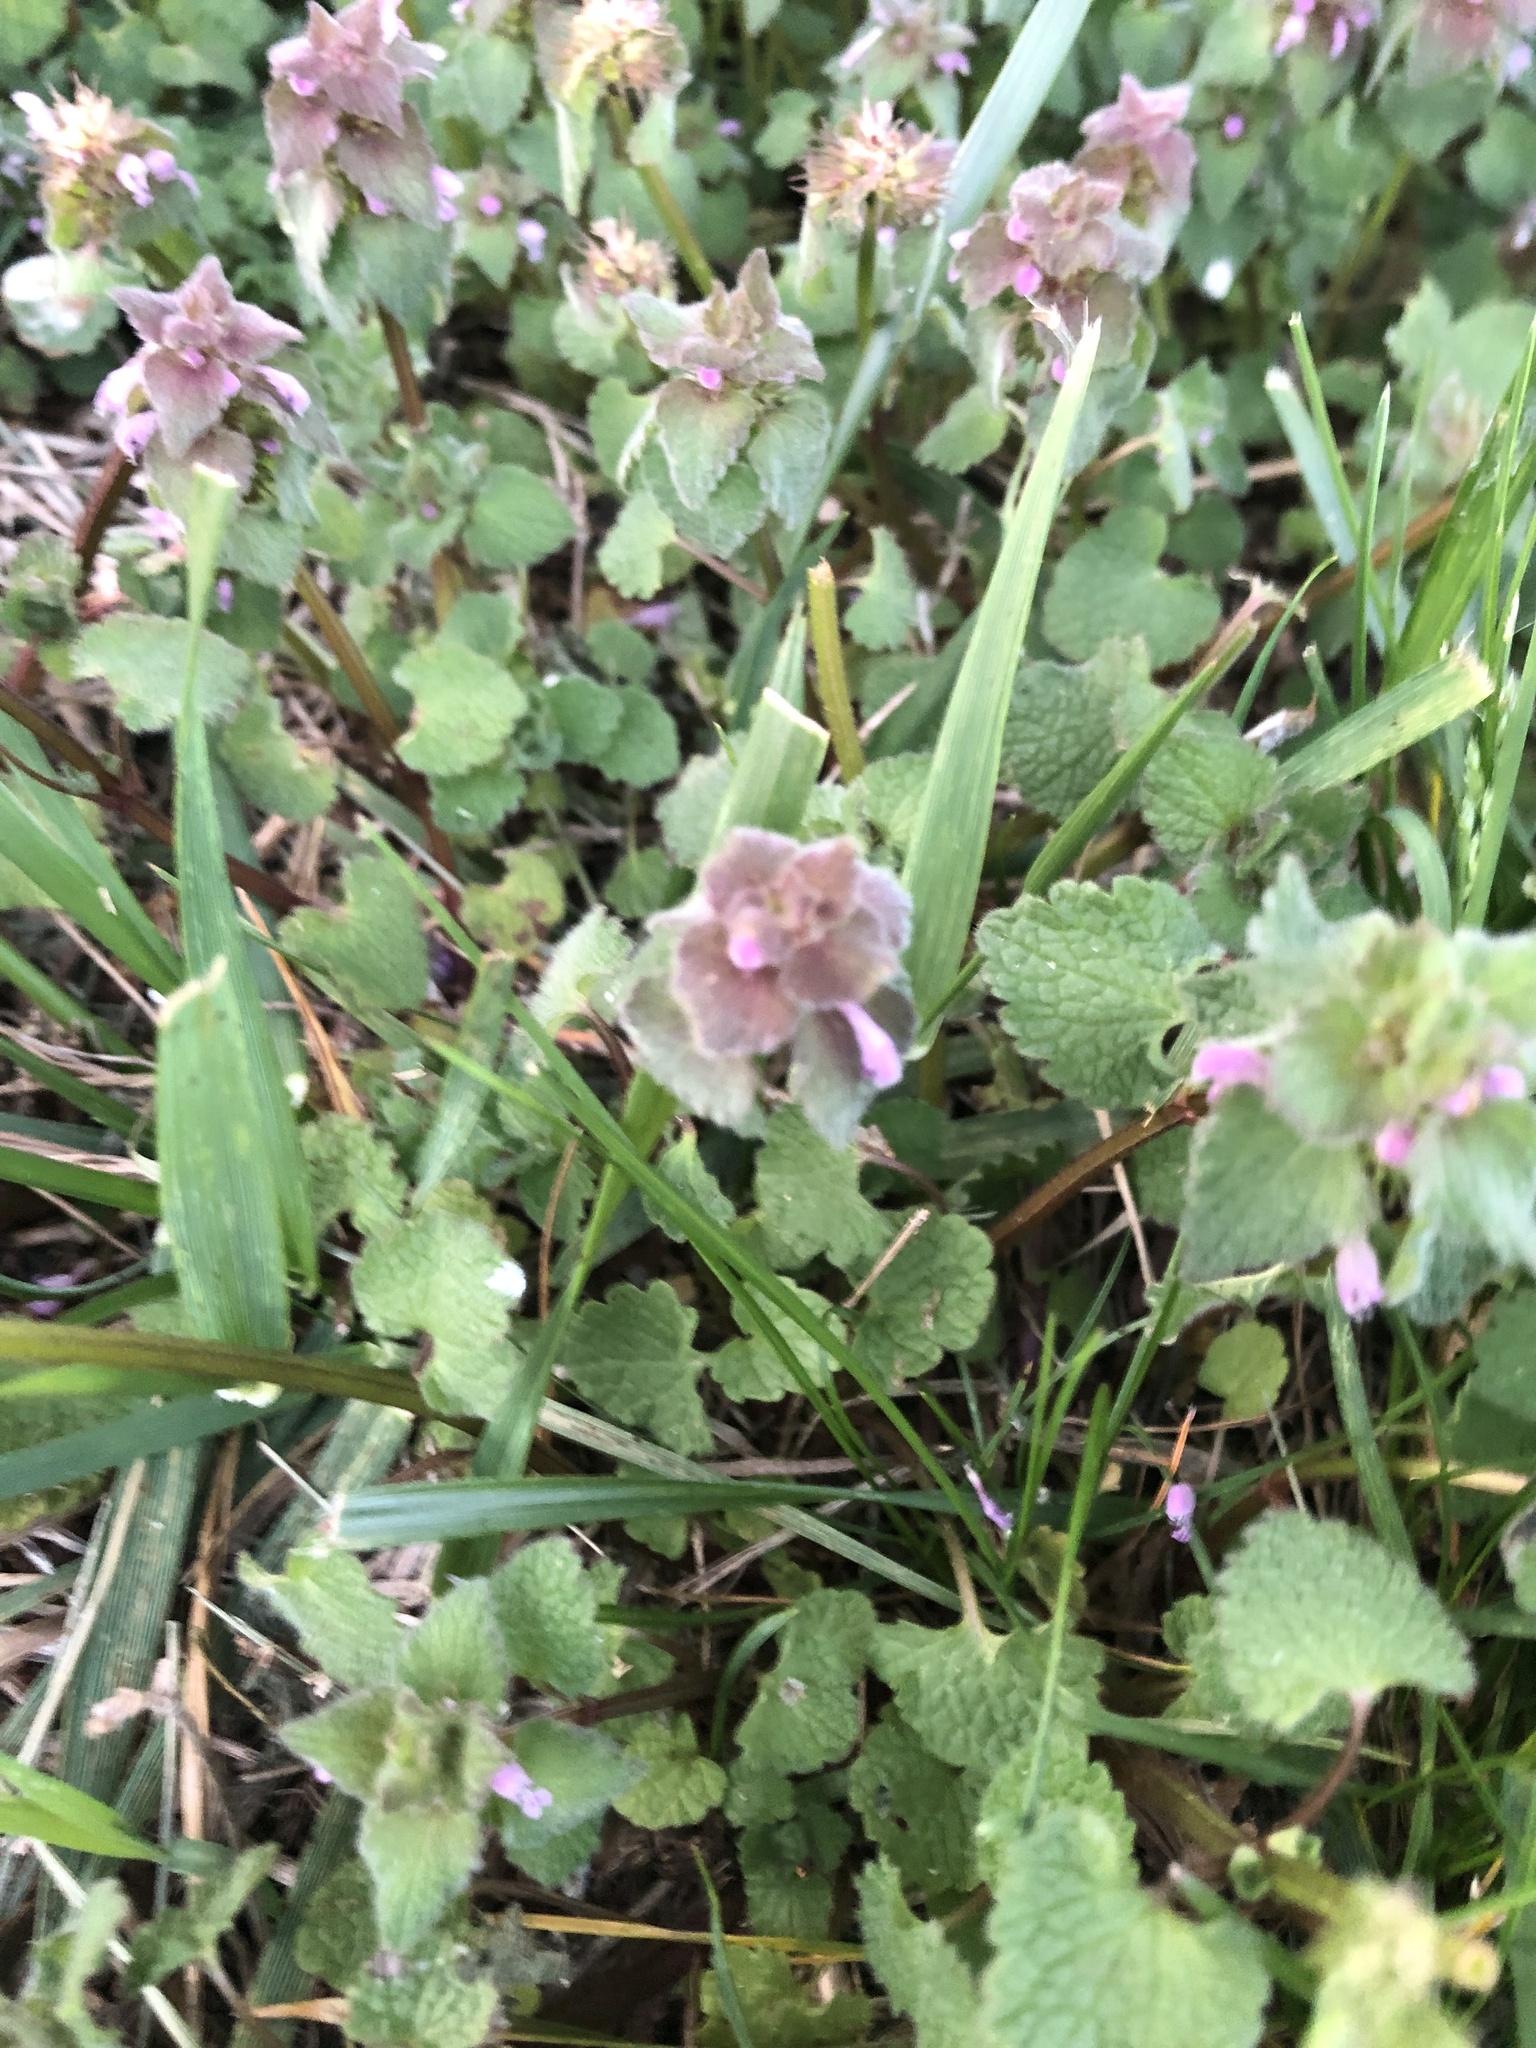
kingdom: Plantae
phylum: Tracheophyta
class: Magnoliopsida
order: Lamiales
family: Lamiaceae
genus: Lamium
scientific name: Lamium purpureum
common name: Red dead-nettle
